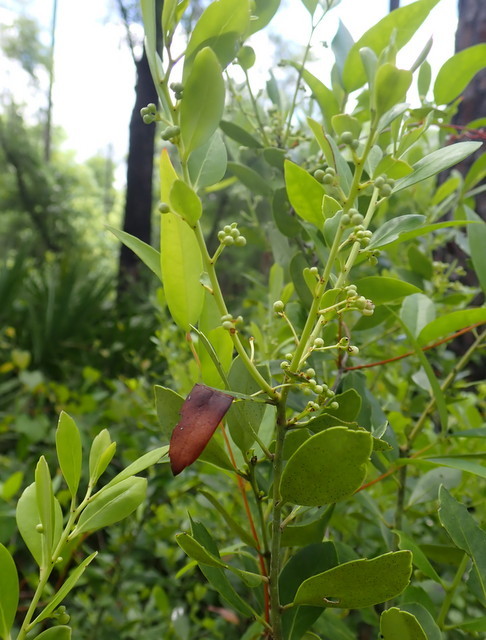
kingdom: Plantae
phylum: Tracheophyta
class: Magnoliopsida
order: Aquifoliales
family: Aquifoliaceae
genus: Ilex
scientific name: Ilex glabra
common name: Bitter gallberry
